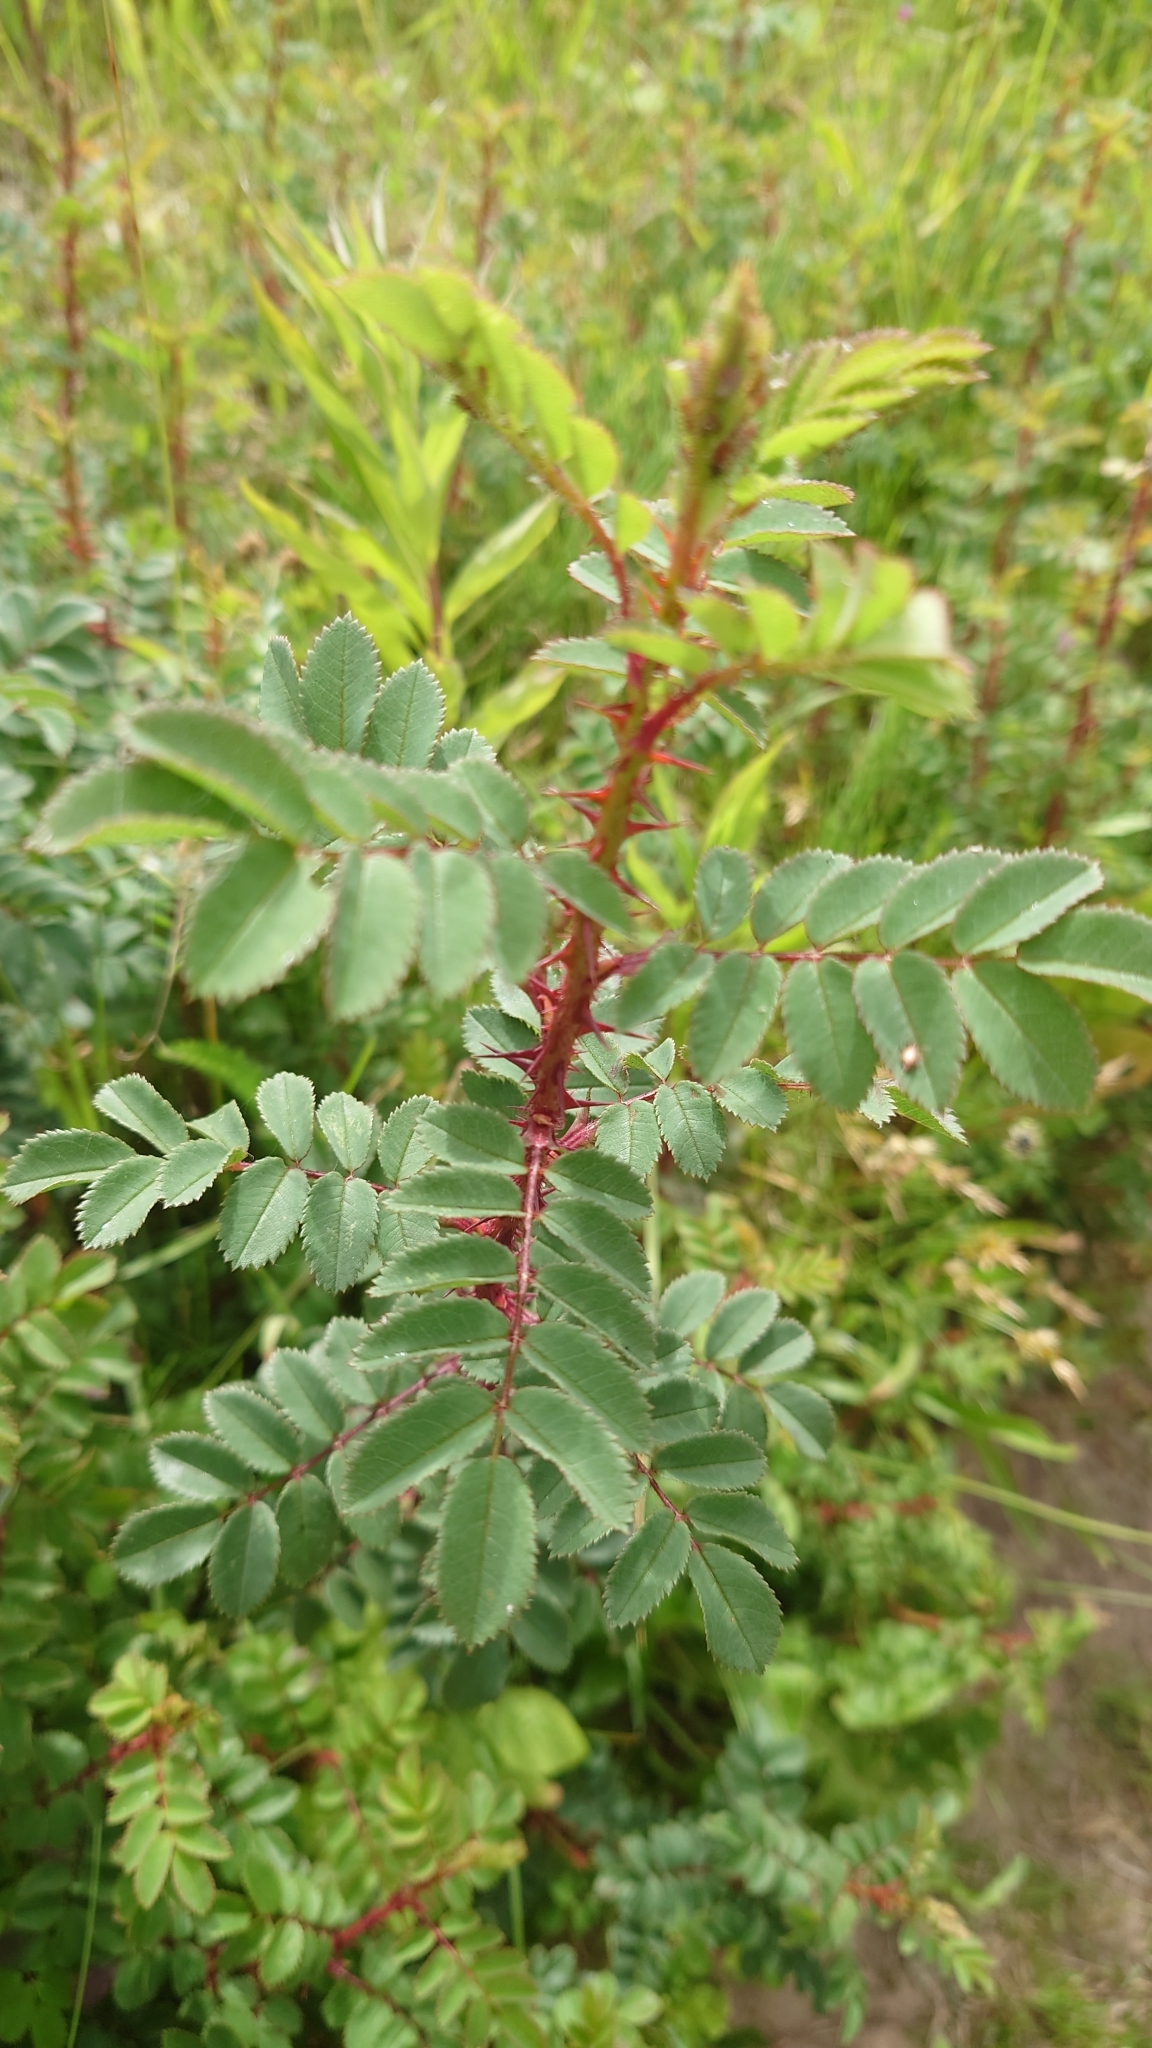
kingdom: Plantae
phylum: Tracheophyta
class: Magnoliopsida
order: Rosales
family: Rosaceae
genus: Rosa
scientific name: Rosa spinosissima
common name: Burnet rose
